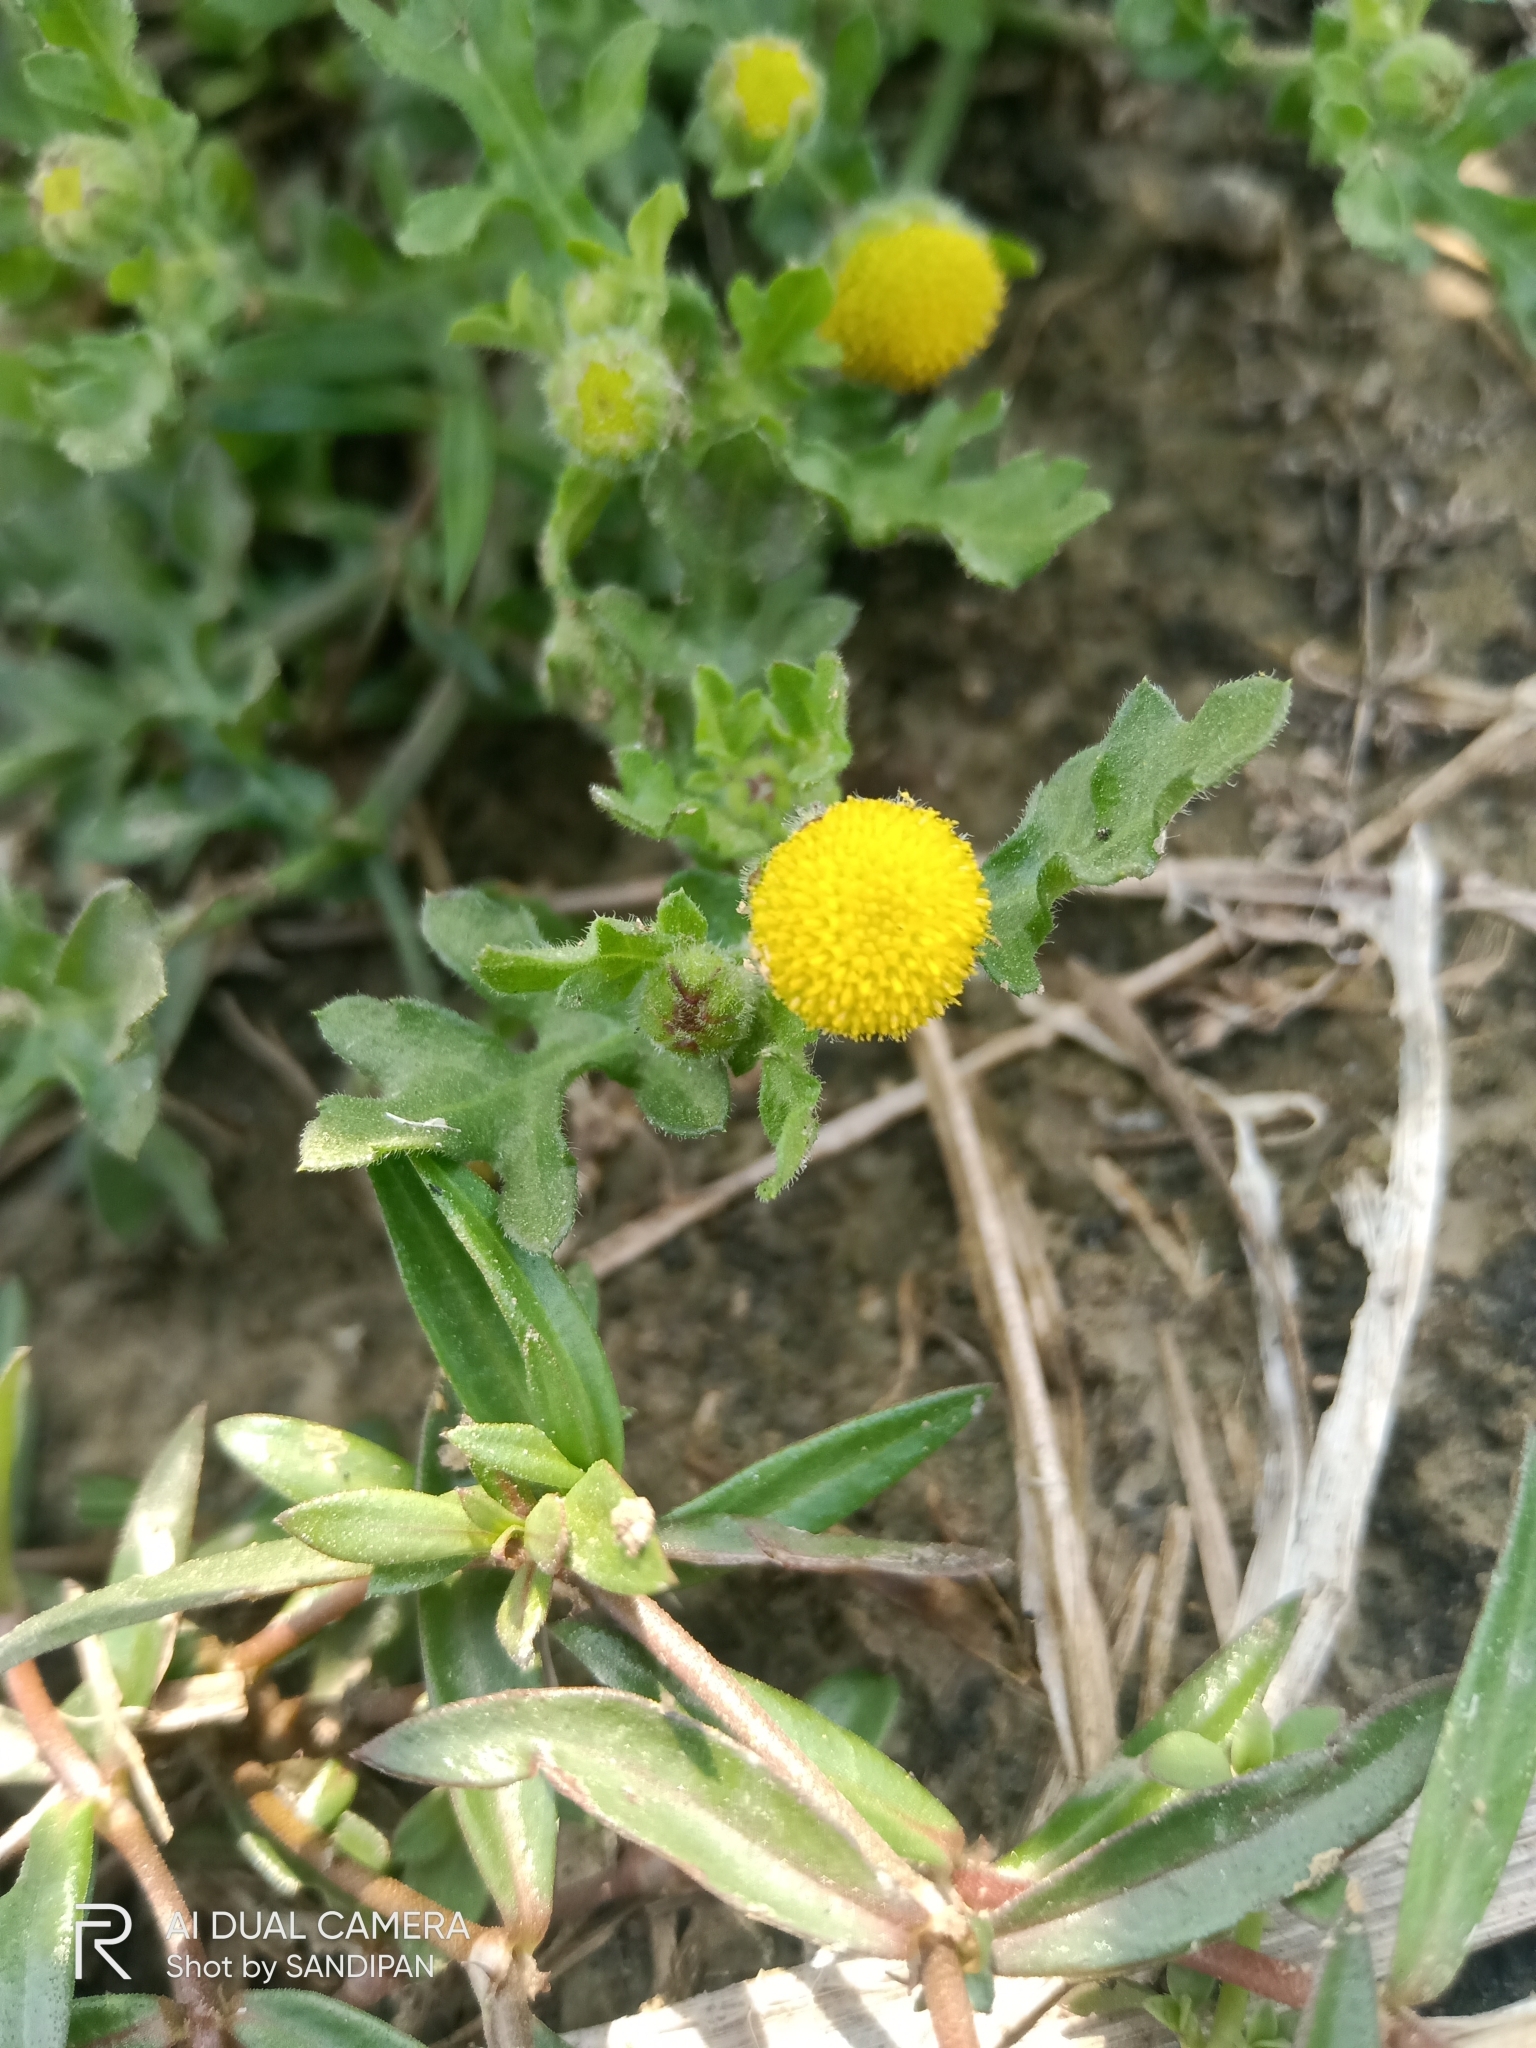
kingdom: Plantae
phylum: Tracheophyta
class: Magnoliopsida
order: Asterales
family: Asteraceae
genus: Grangea
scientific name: Grangea maderaspatana
